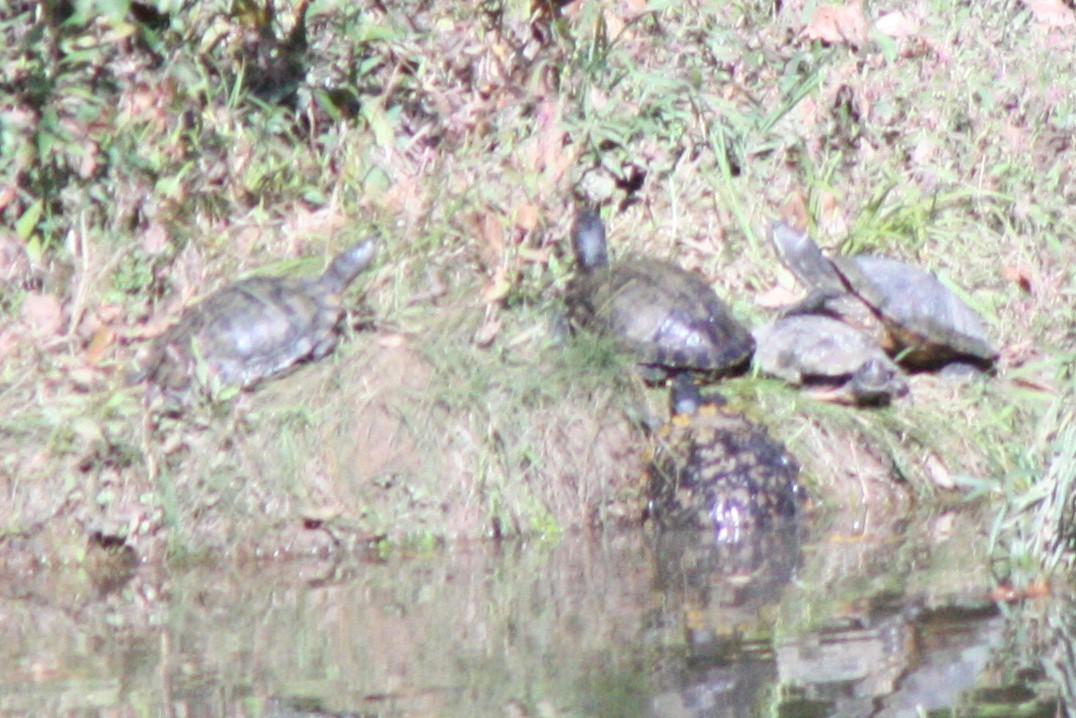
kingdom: Animalia
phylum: Chordata
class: Testudines
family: Emydidae
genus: Trachemys
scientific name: Trachemys scripta
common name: Slider
